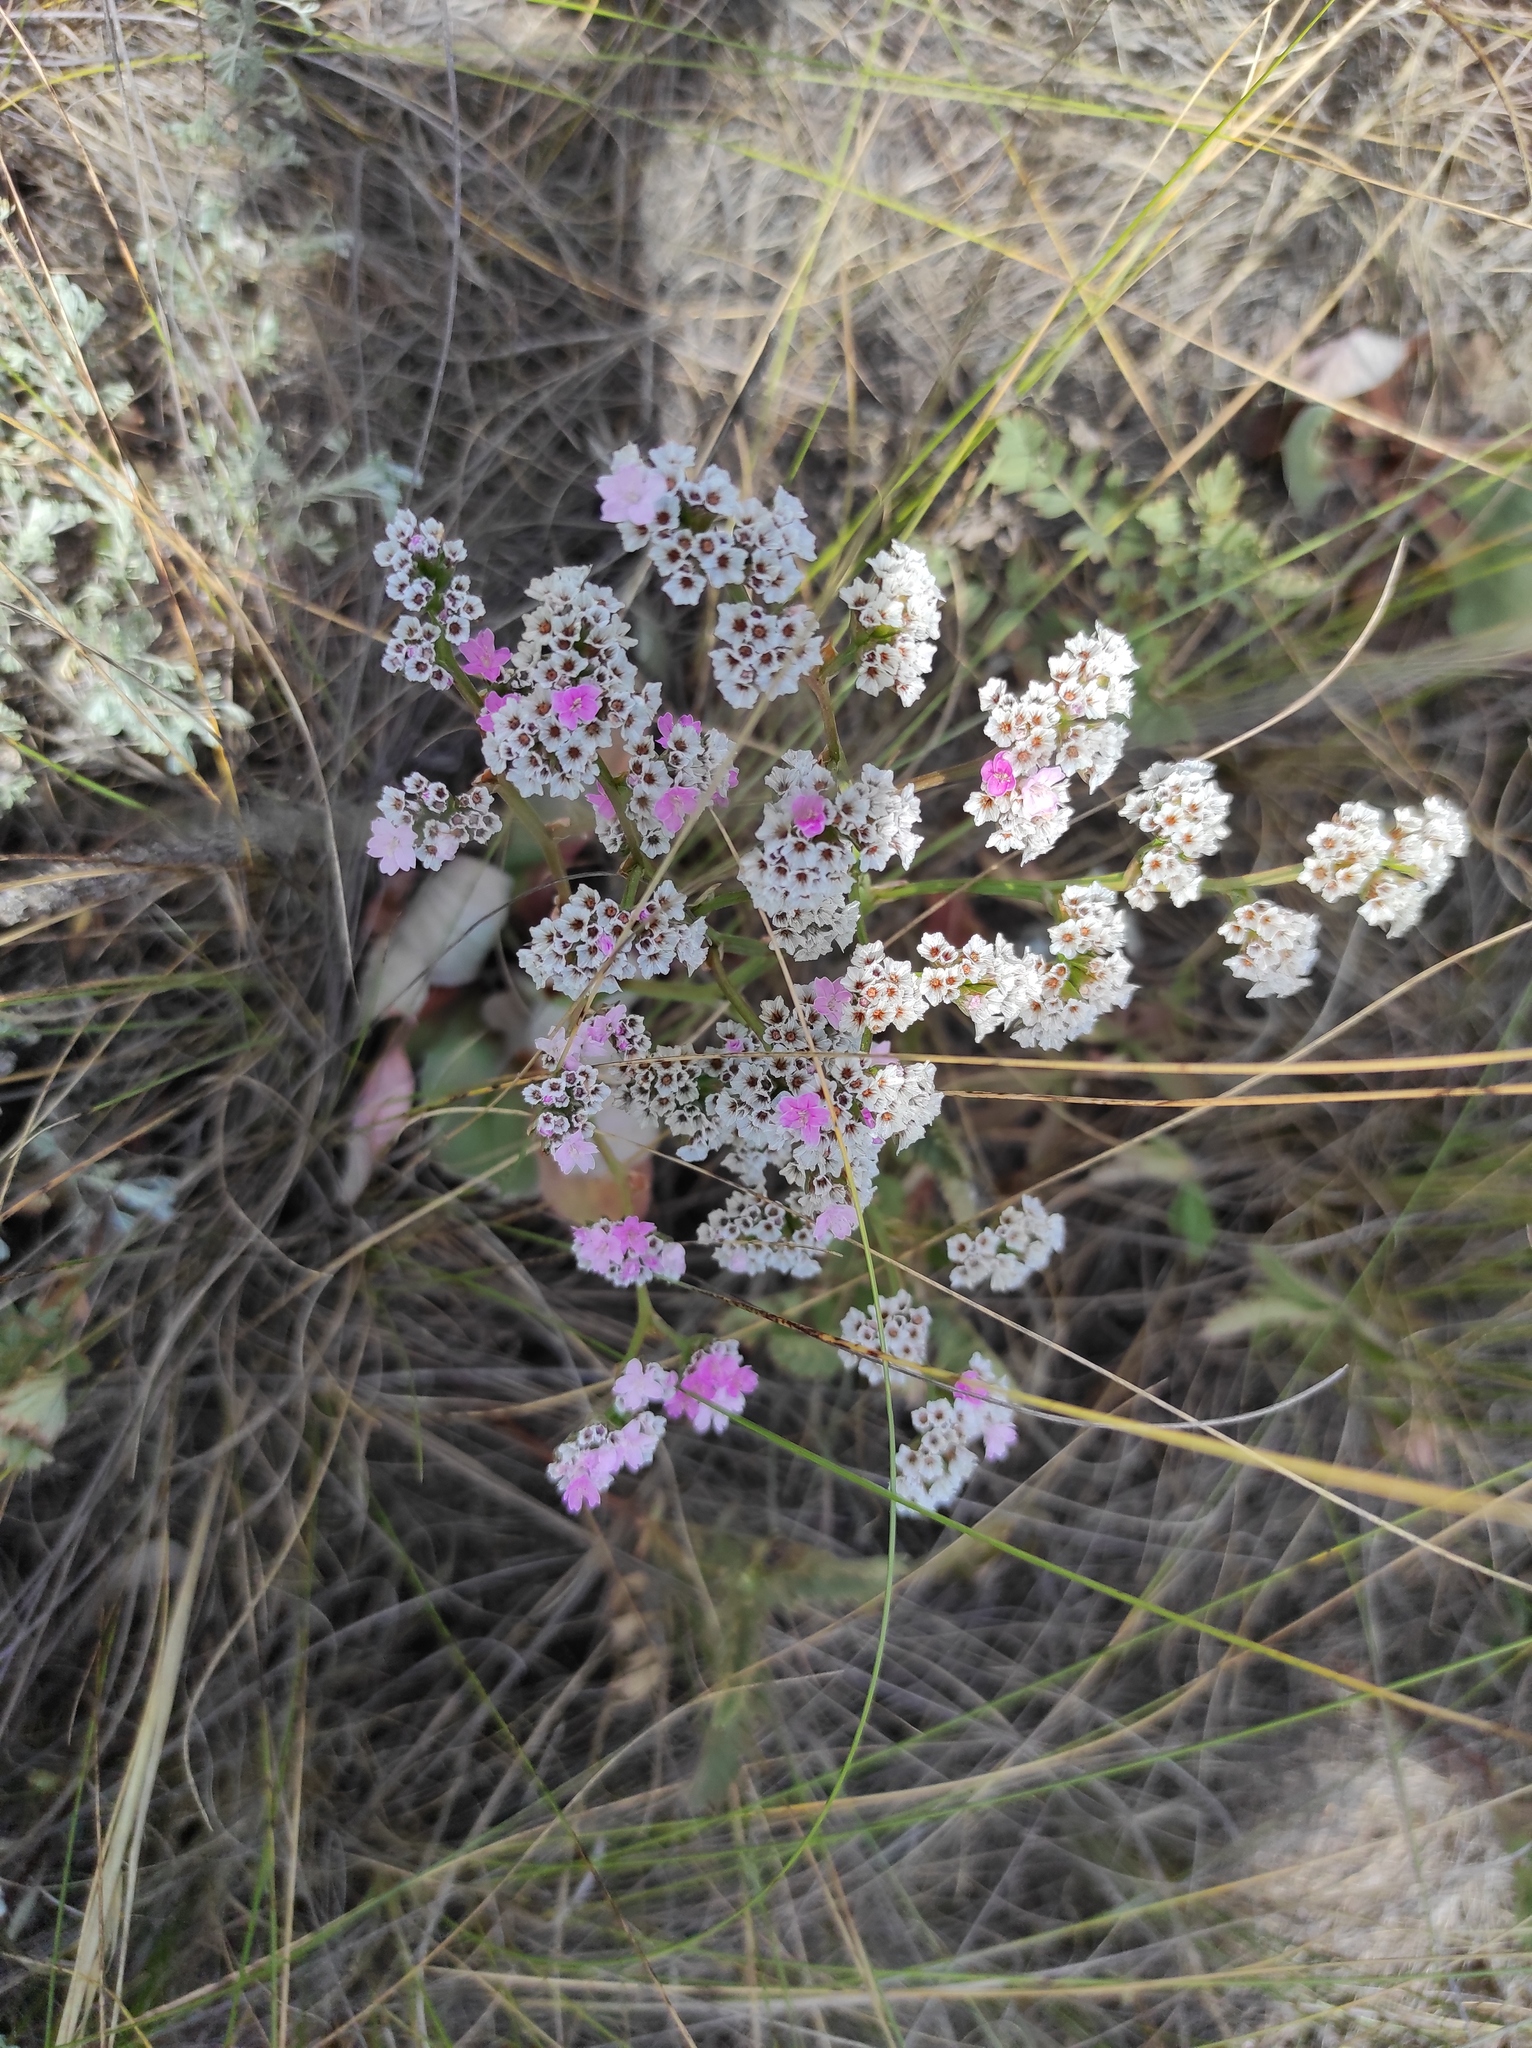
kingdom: Plantae
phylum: Tracheophyta
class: Magnoliopsida
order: Caryophyllales
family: Plumbaginaceae
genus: Goniolimon
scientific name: Goniolimon speciosum
